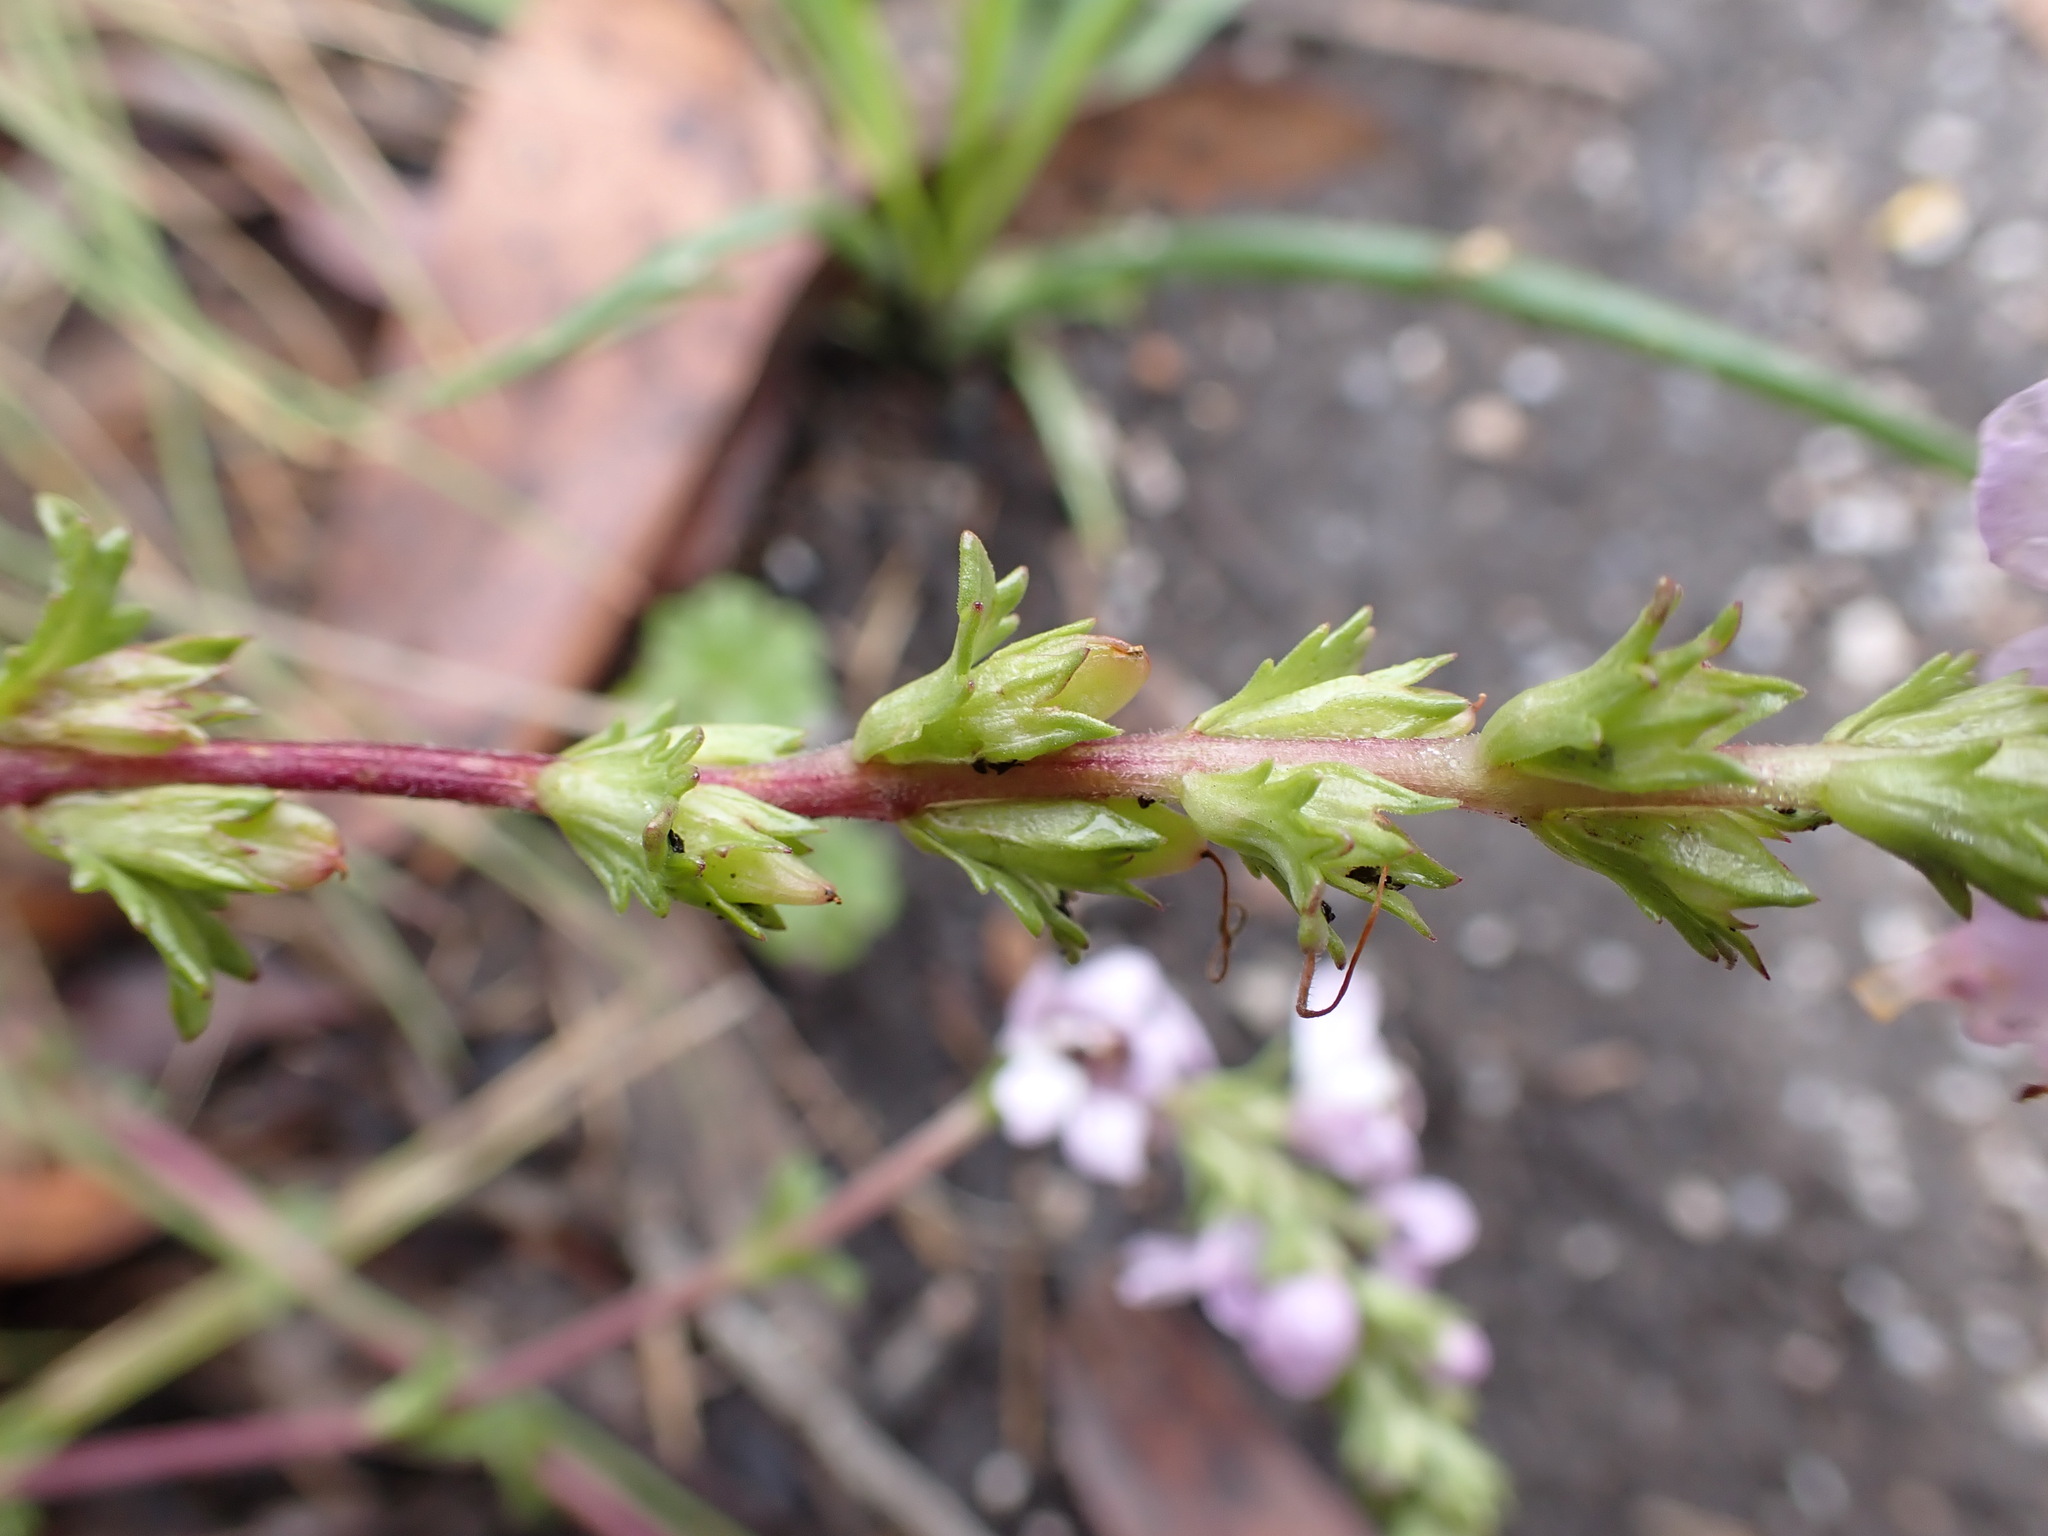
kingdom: Plantae
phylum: Tracheophyta
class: Magnoliopsida
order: Lamiales
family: Orobanchaceae
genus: Euphrasia
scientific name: Euphrasia collina
